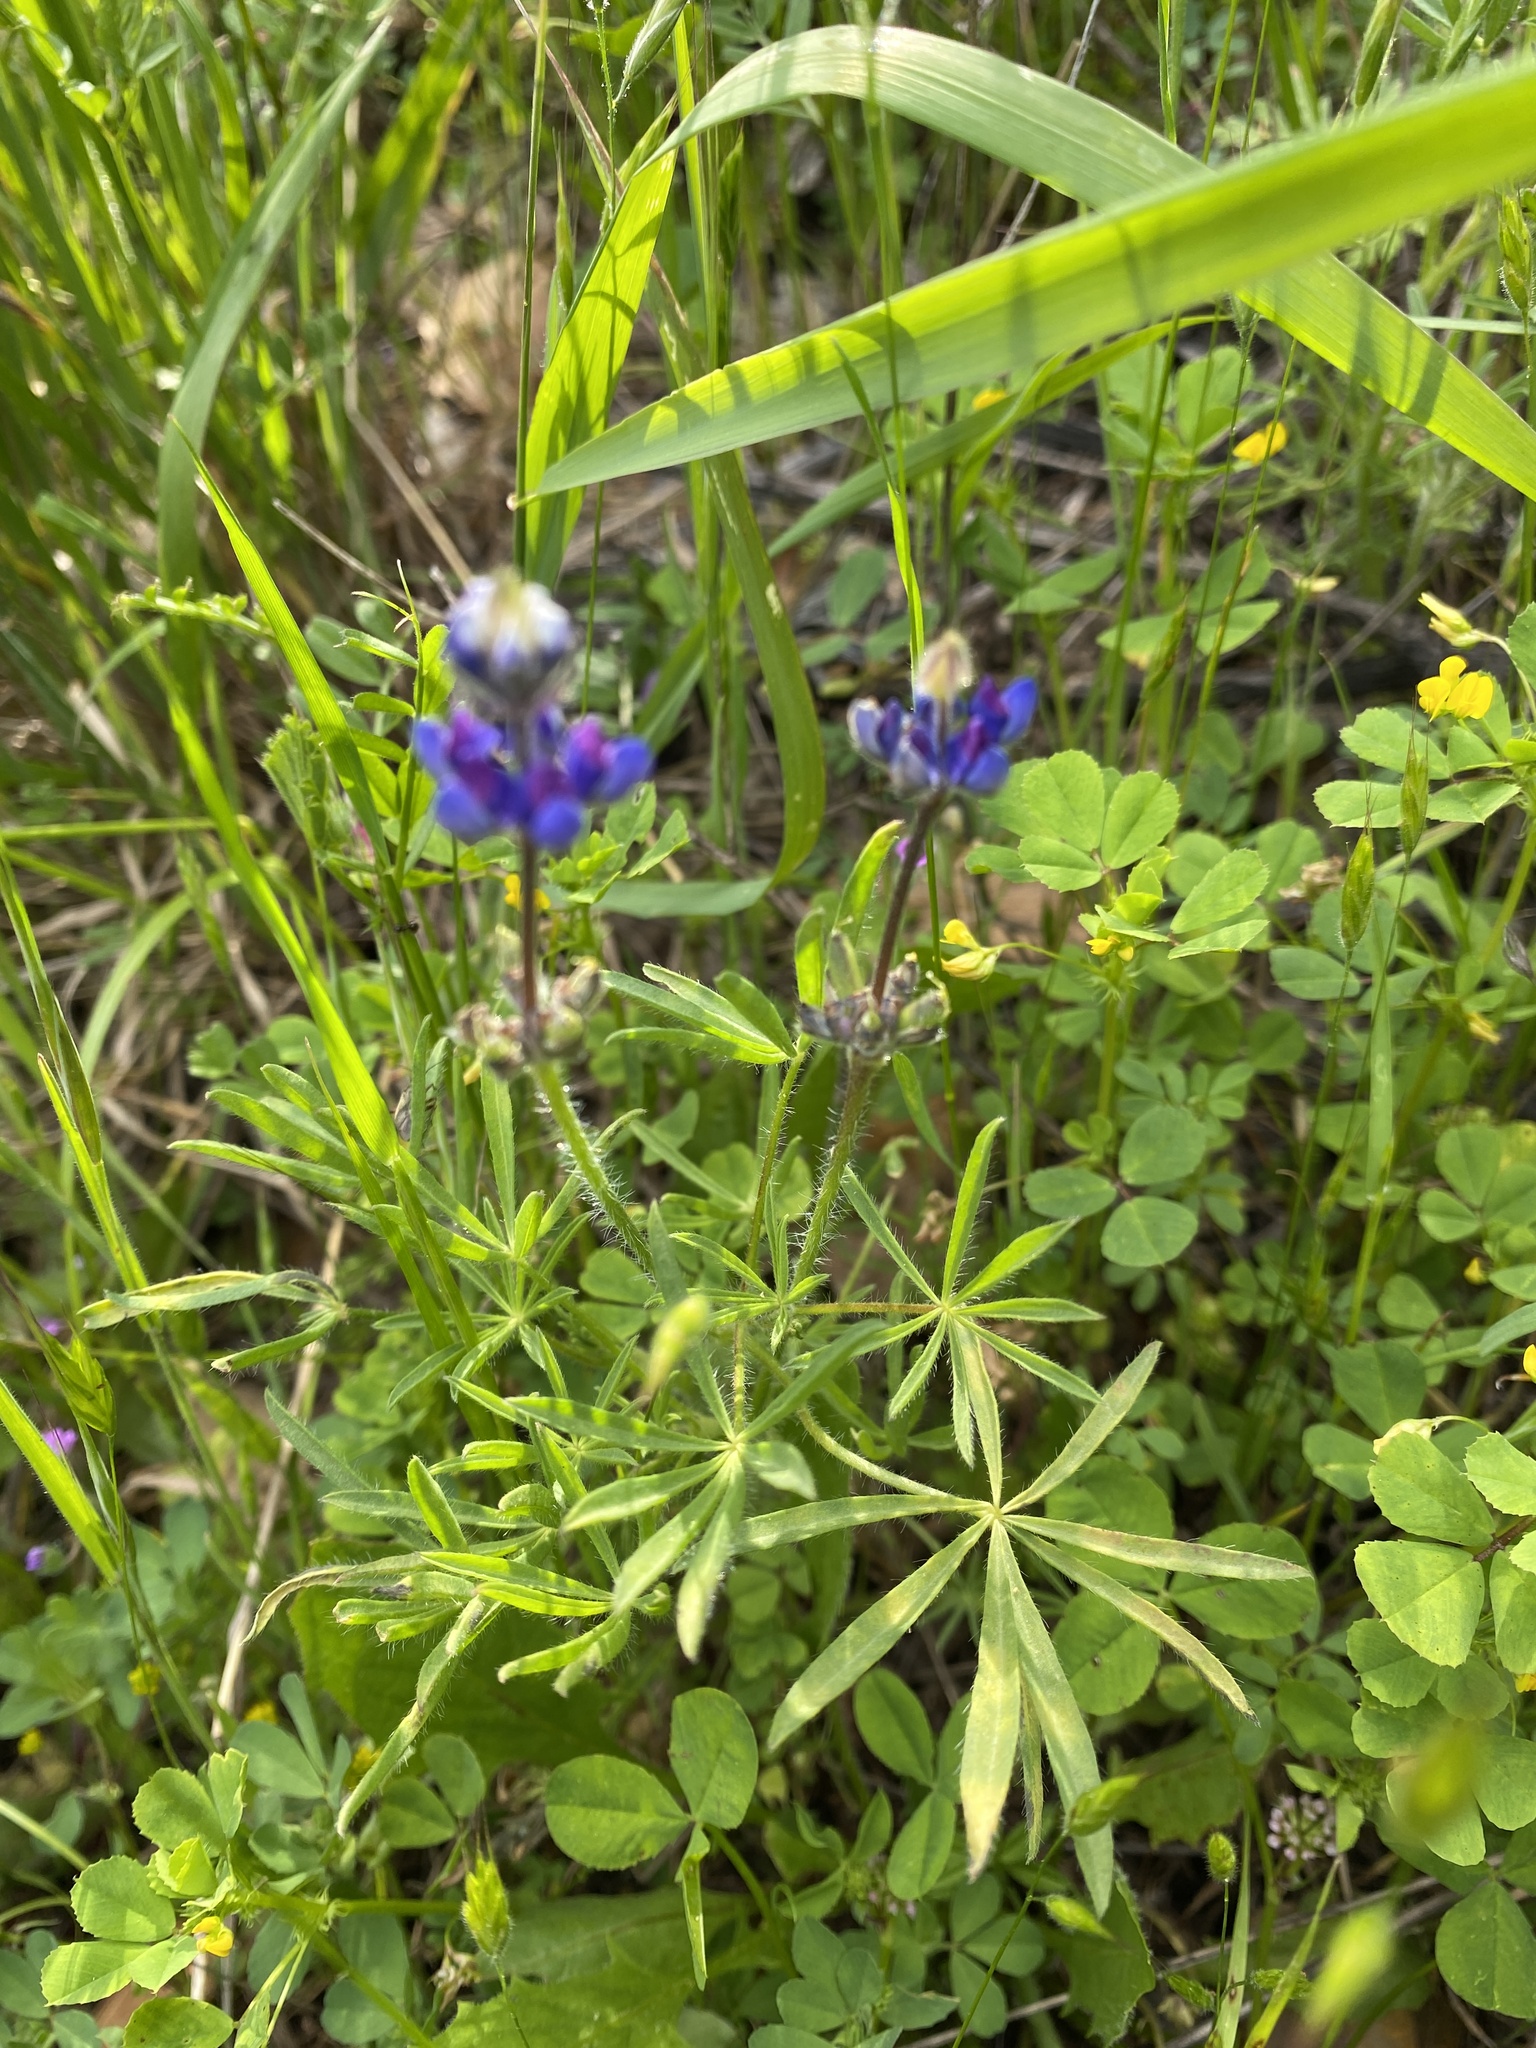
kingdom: Plantae
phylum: Tracheophyta
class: Magnoliopsida
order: Fabales
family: Fabaceae
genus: Lupinus
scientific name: Lupinus bicolor
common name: Miniature lupine
